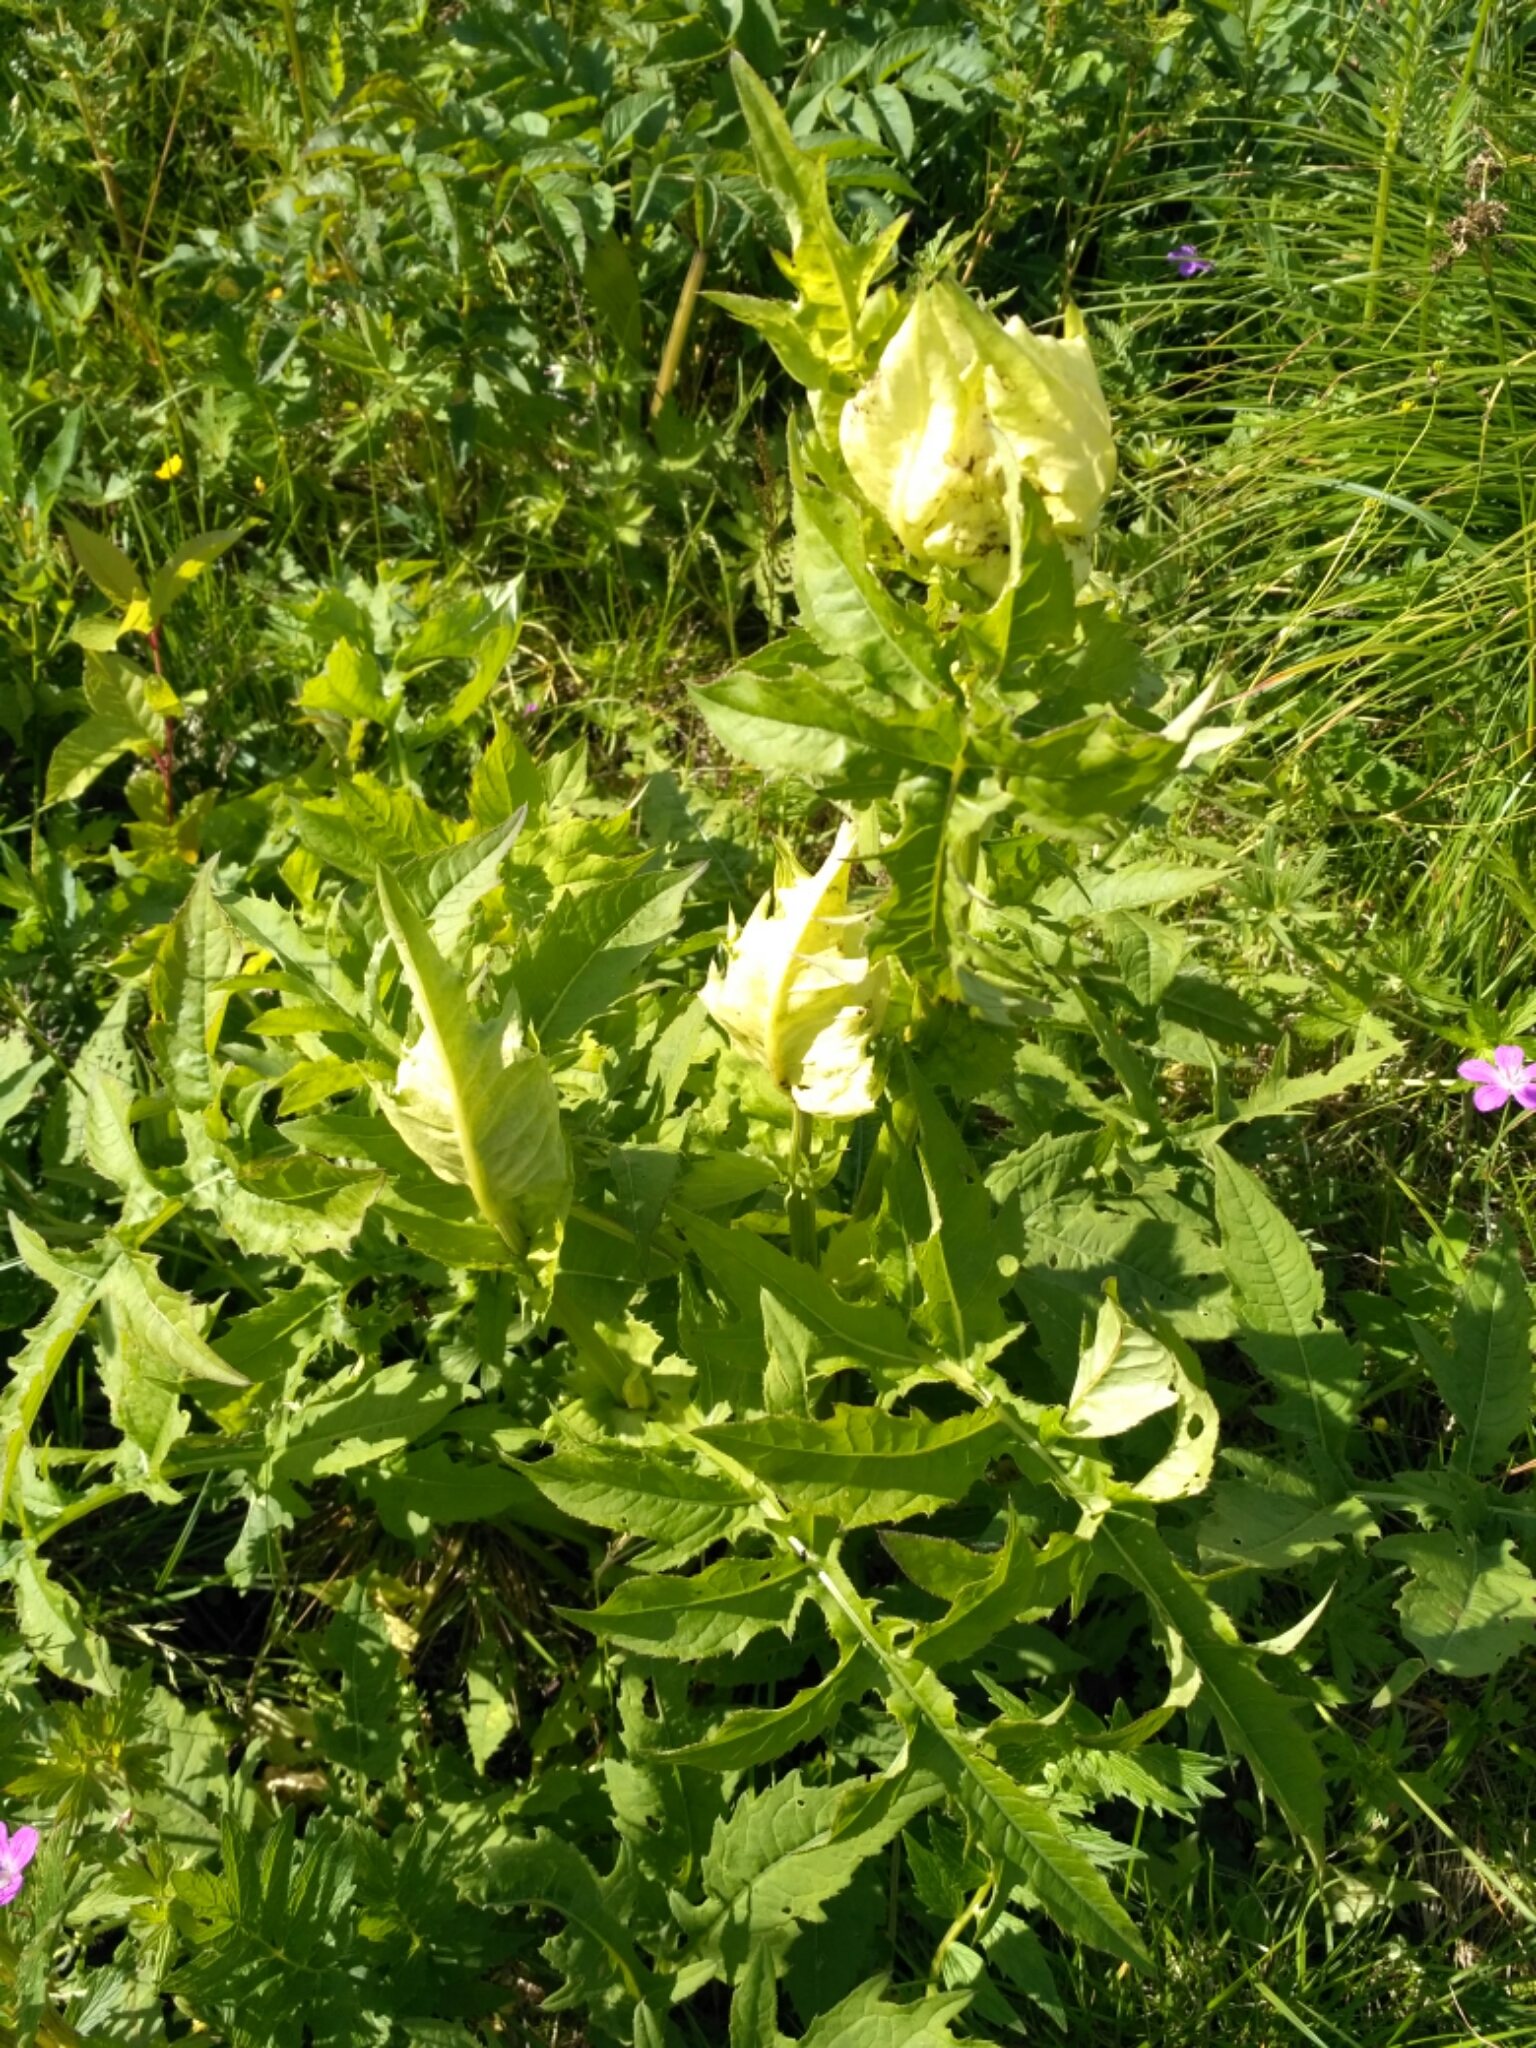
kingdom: Plantae
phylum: Tracheophyta
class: Magnoliopsida
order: Asterales
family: Asteraceae
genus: Cirsium
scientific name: Cirsium oleraceum
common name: Cabbage thistle
